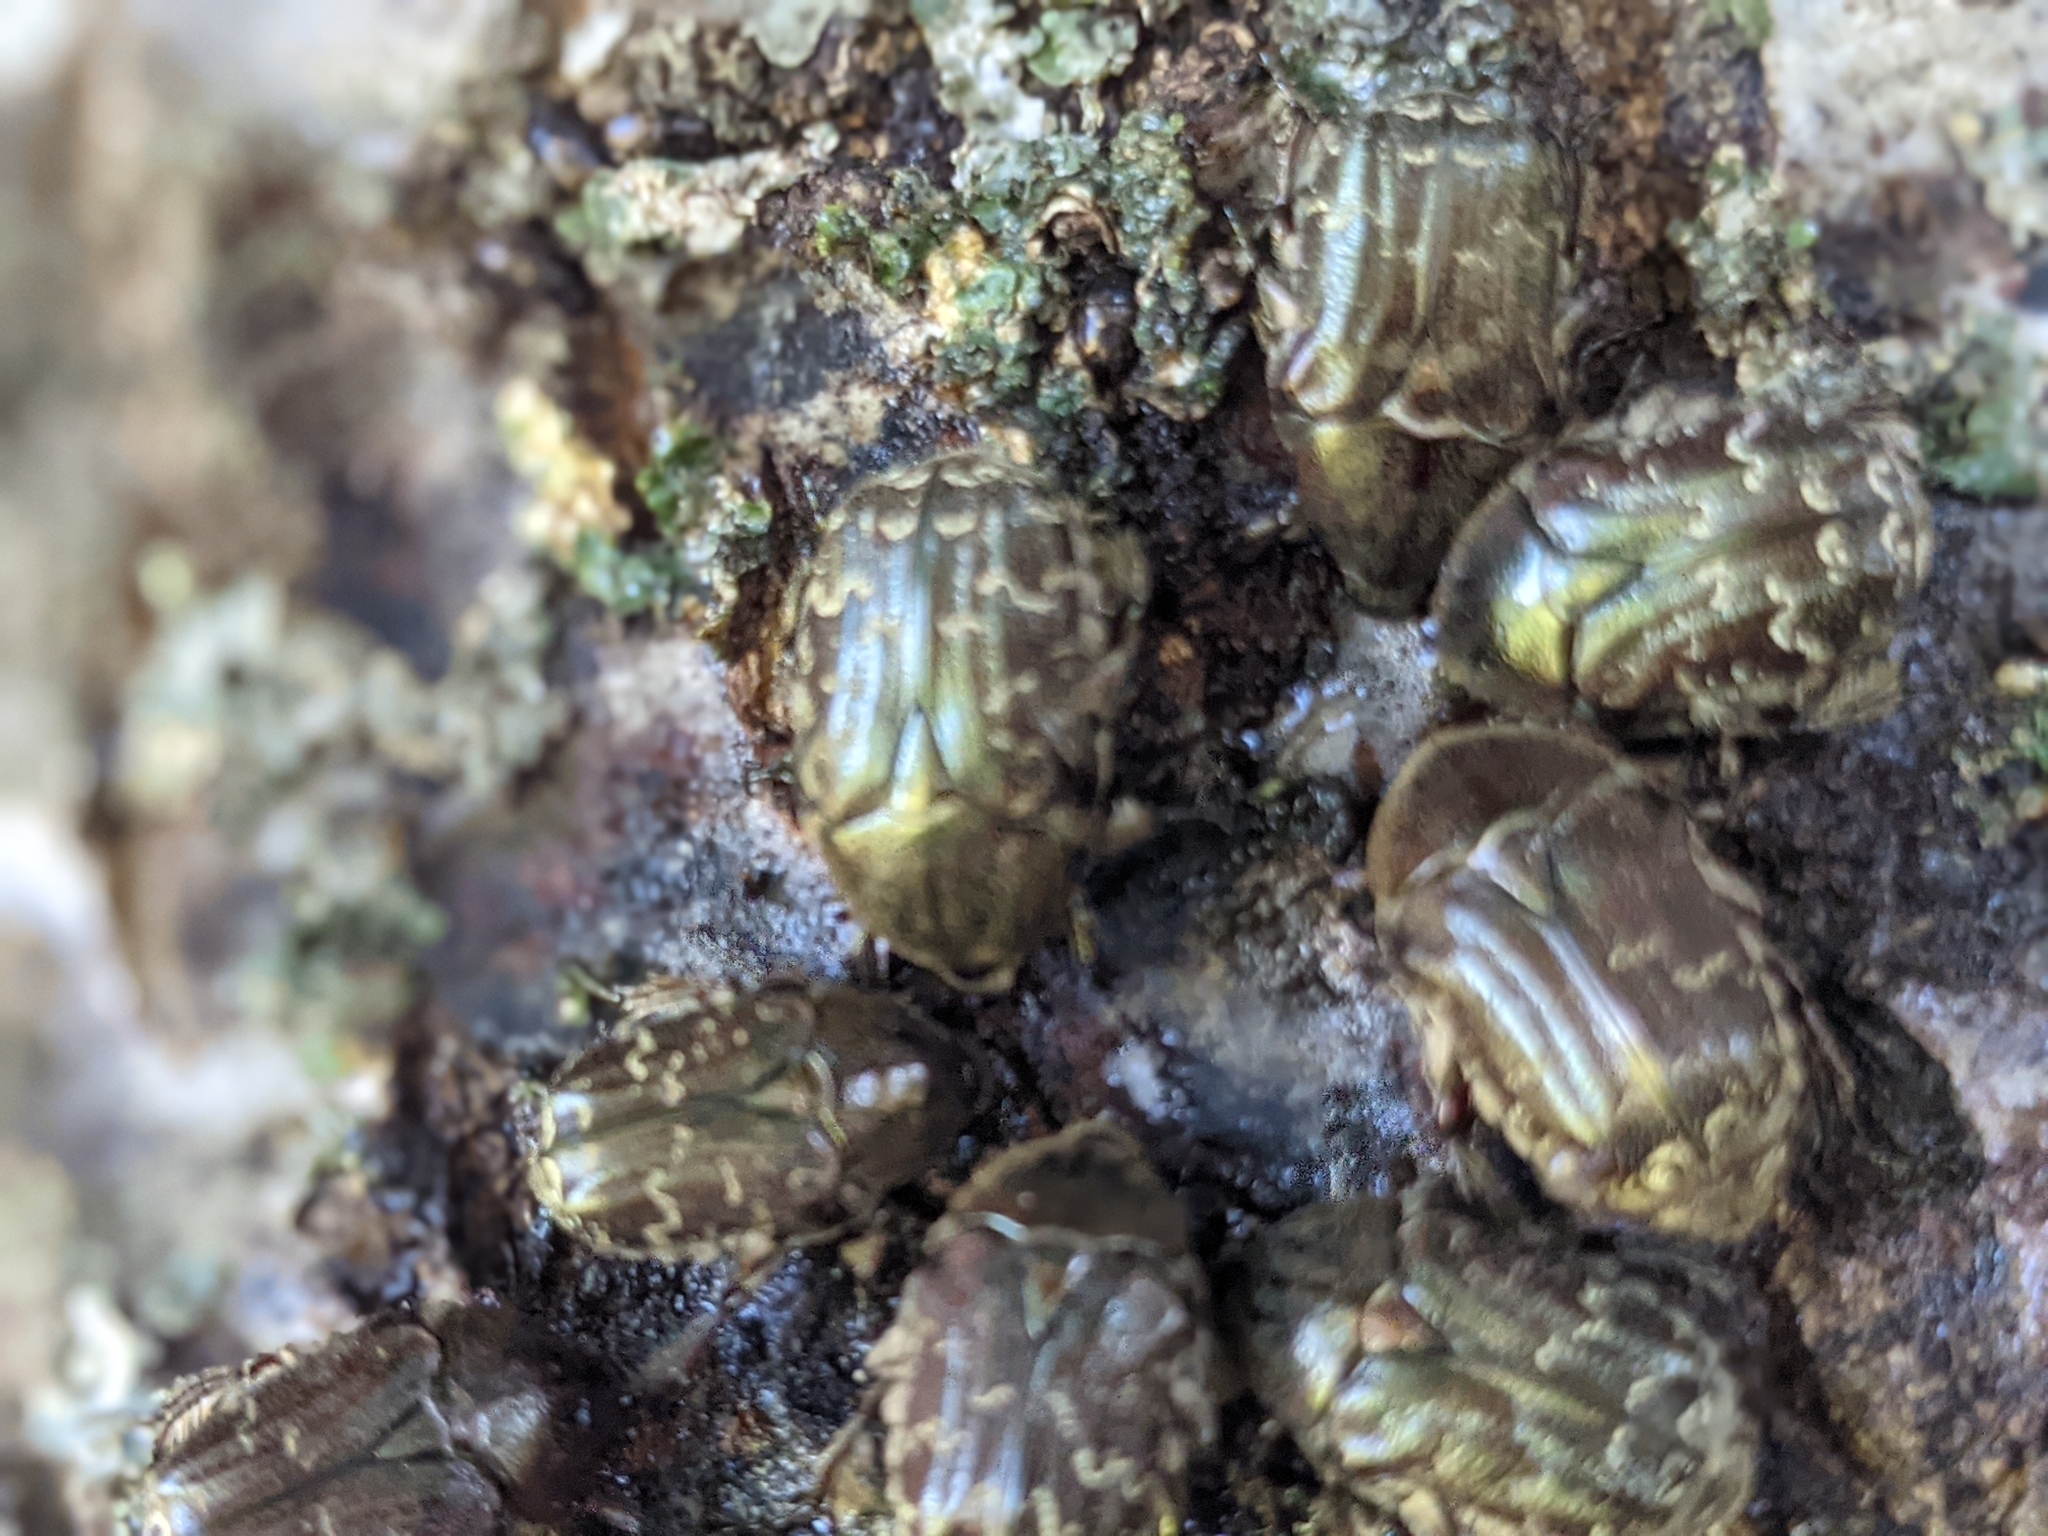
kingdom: Animalia
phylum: Arthropoda
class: Insecta
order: Coleoptera
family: Scarabaeidae
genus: Euphoria
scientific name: Euphoria sepulcralis
